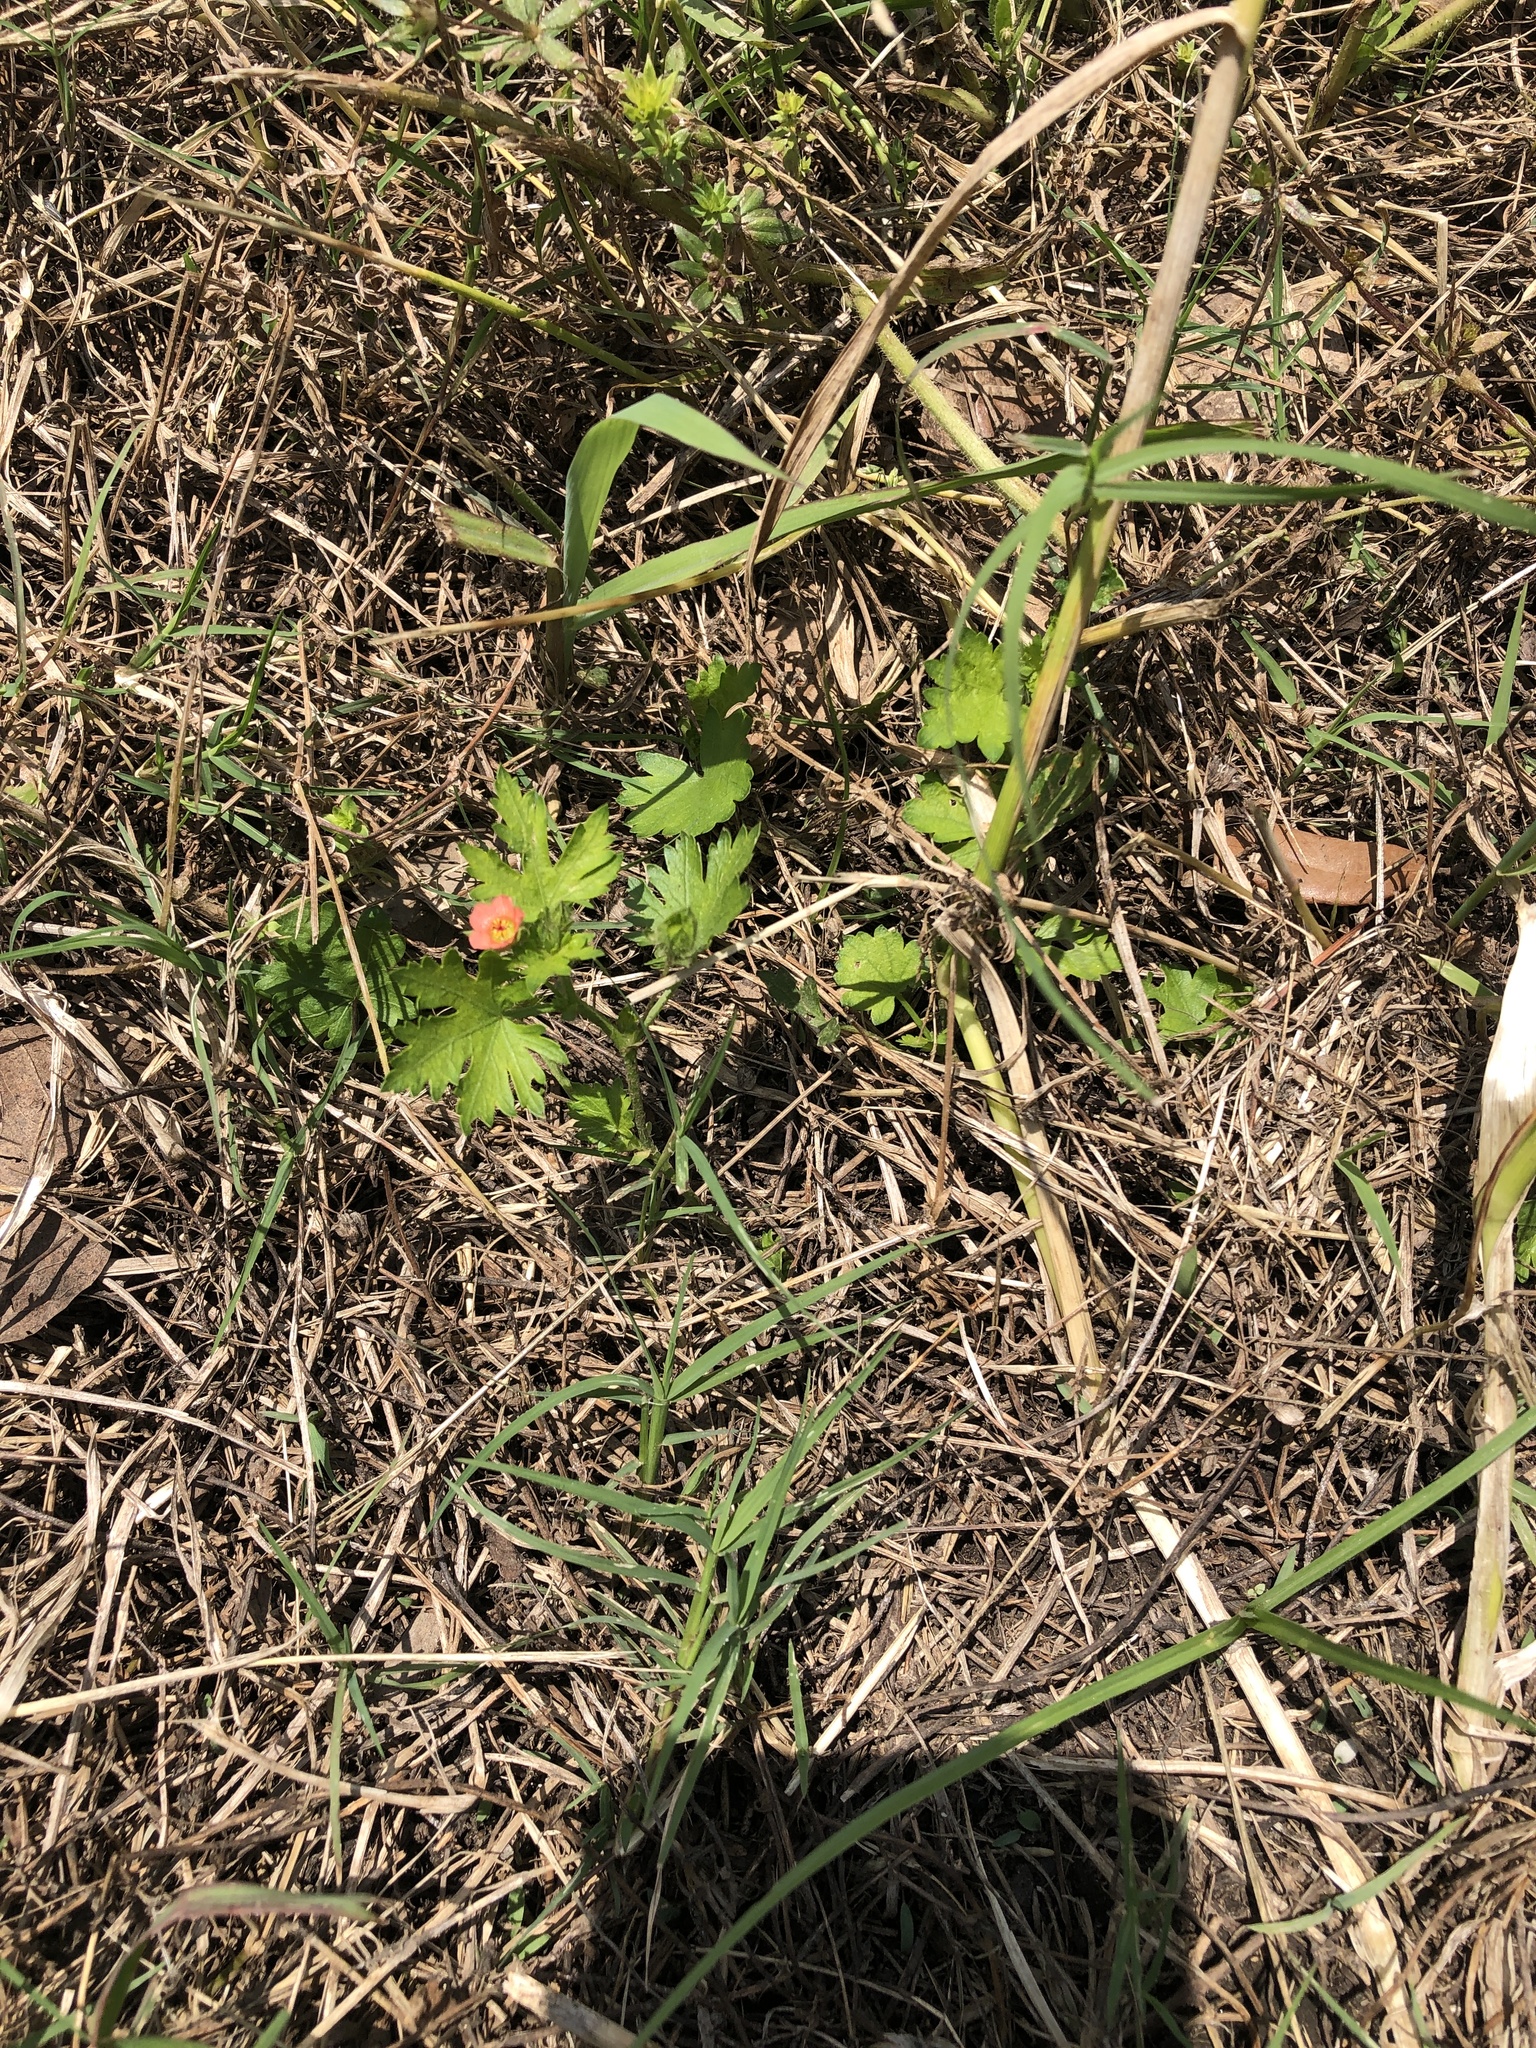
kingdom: Plantae
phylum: Tracheophyta
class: Magnoliopsida
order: Malvales
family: Malvaceae
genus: Modiola
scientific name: Modiola caroliniana
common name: Carolina bristlemallow
